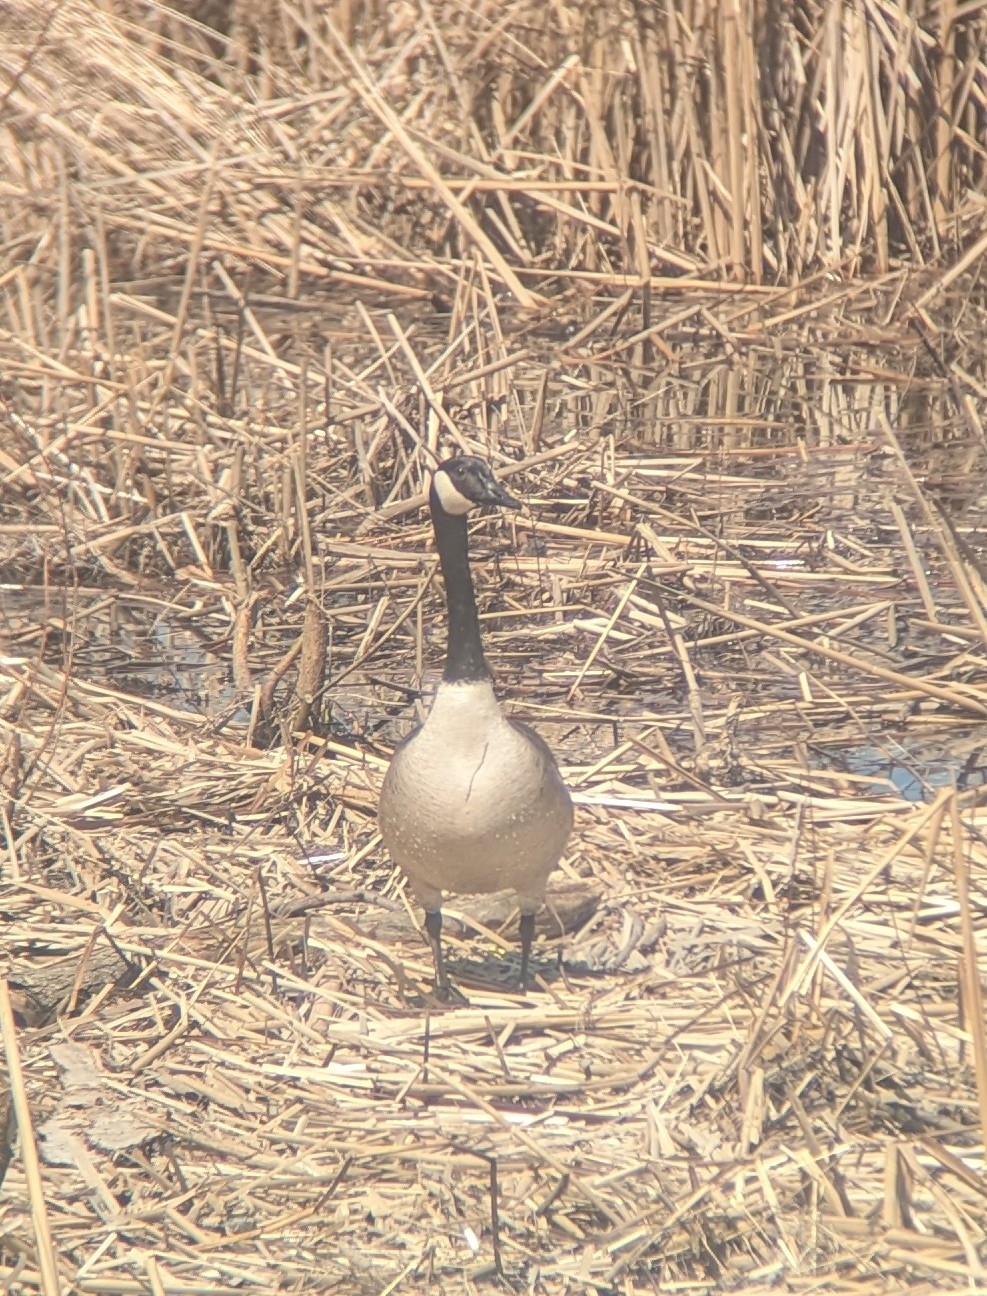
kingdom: Animalia
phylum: Chordata
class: Aves
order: Anseriformes
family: Anatidae
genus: Branta
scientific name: Branta canadensis
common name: Canada goose
